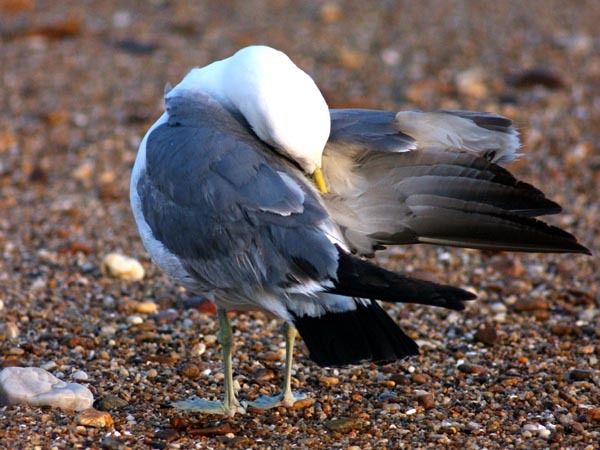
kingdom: Animalia
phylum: Chordata
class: Aves
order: Charadriiformes
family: Laridae
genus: Larus
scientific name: Larus crassirostris
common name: Black-tailed gull
